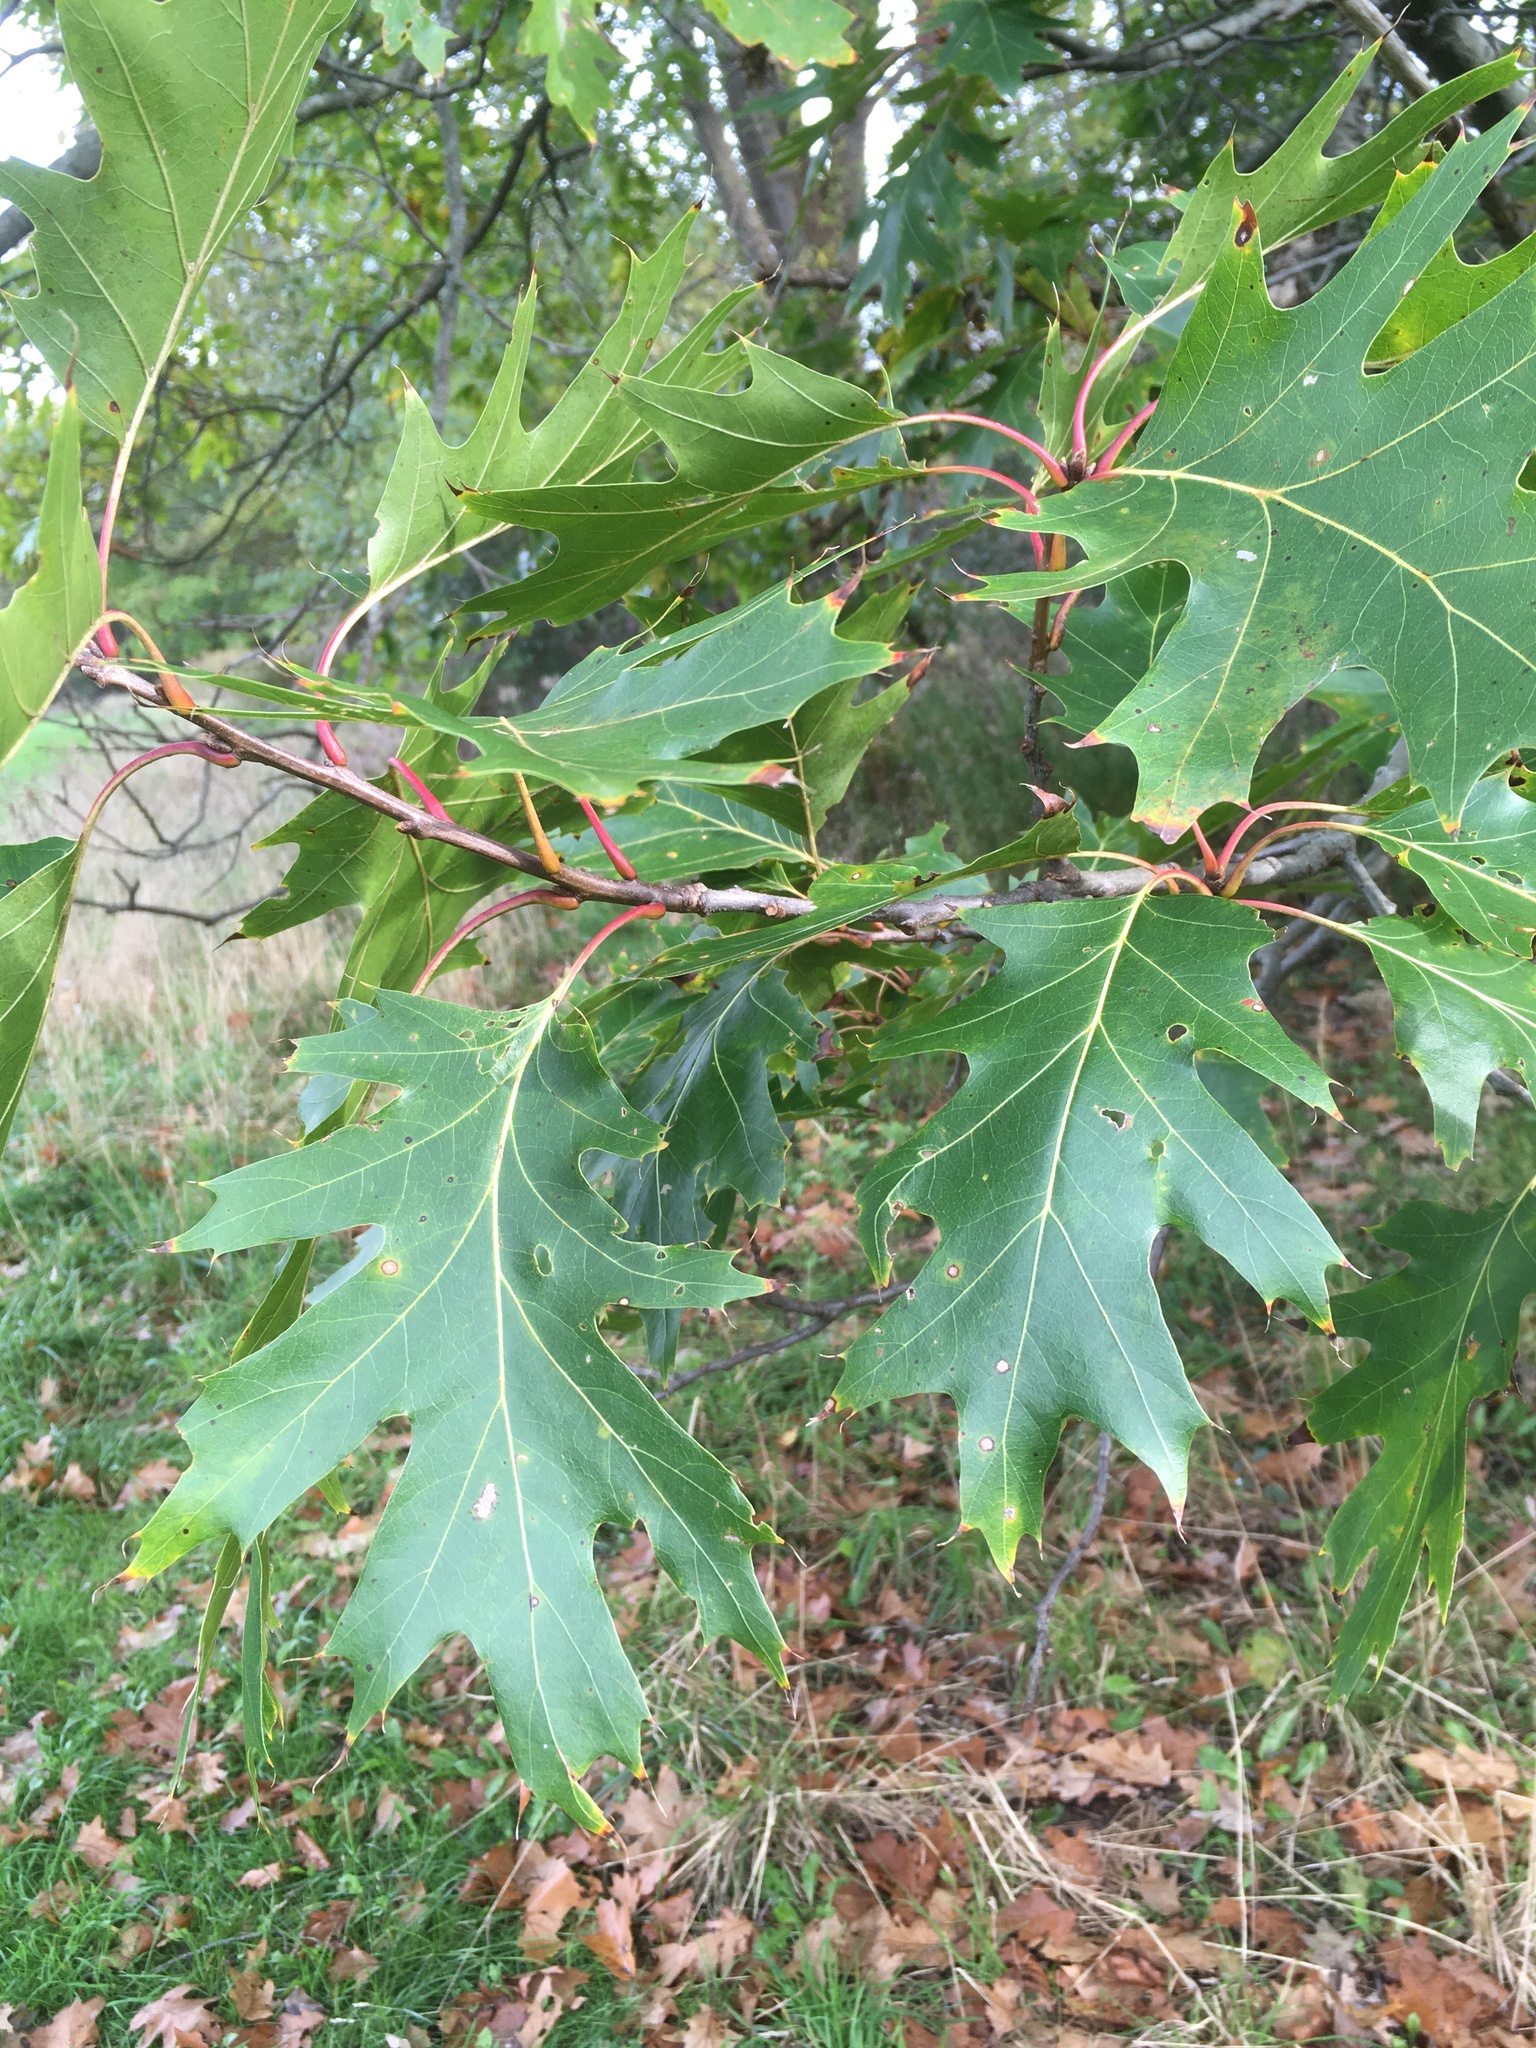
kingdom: Plantae
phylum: Tracheophyta
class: Magnoliopsida
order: Fagales
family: Fagaceae
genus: Quercus
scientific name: Quercus rubra
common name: Red oak
